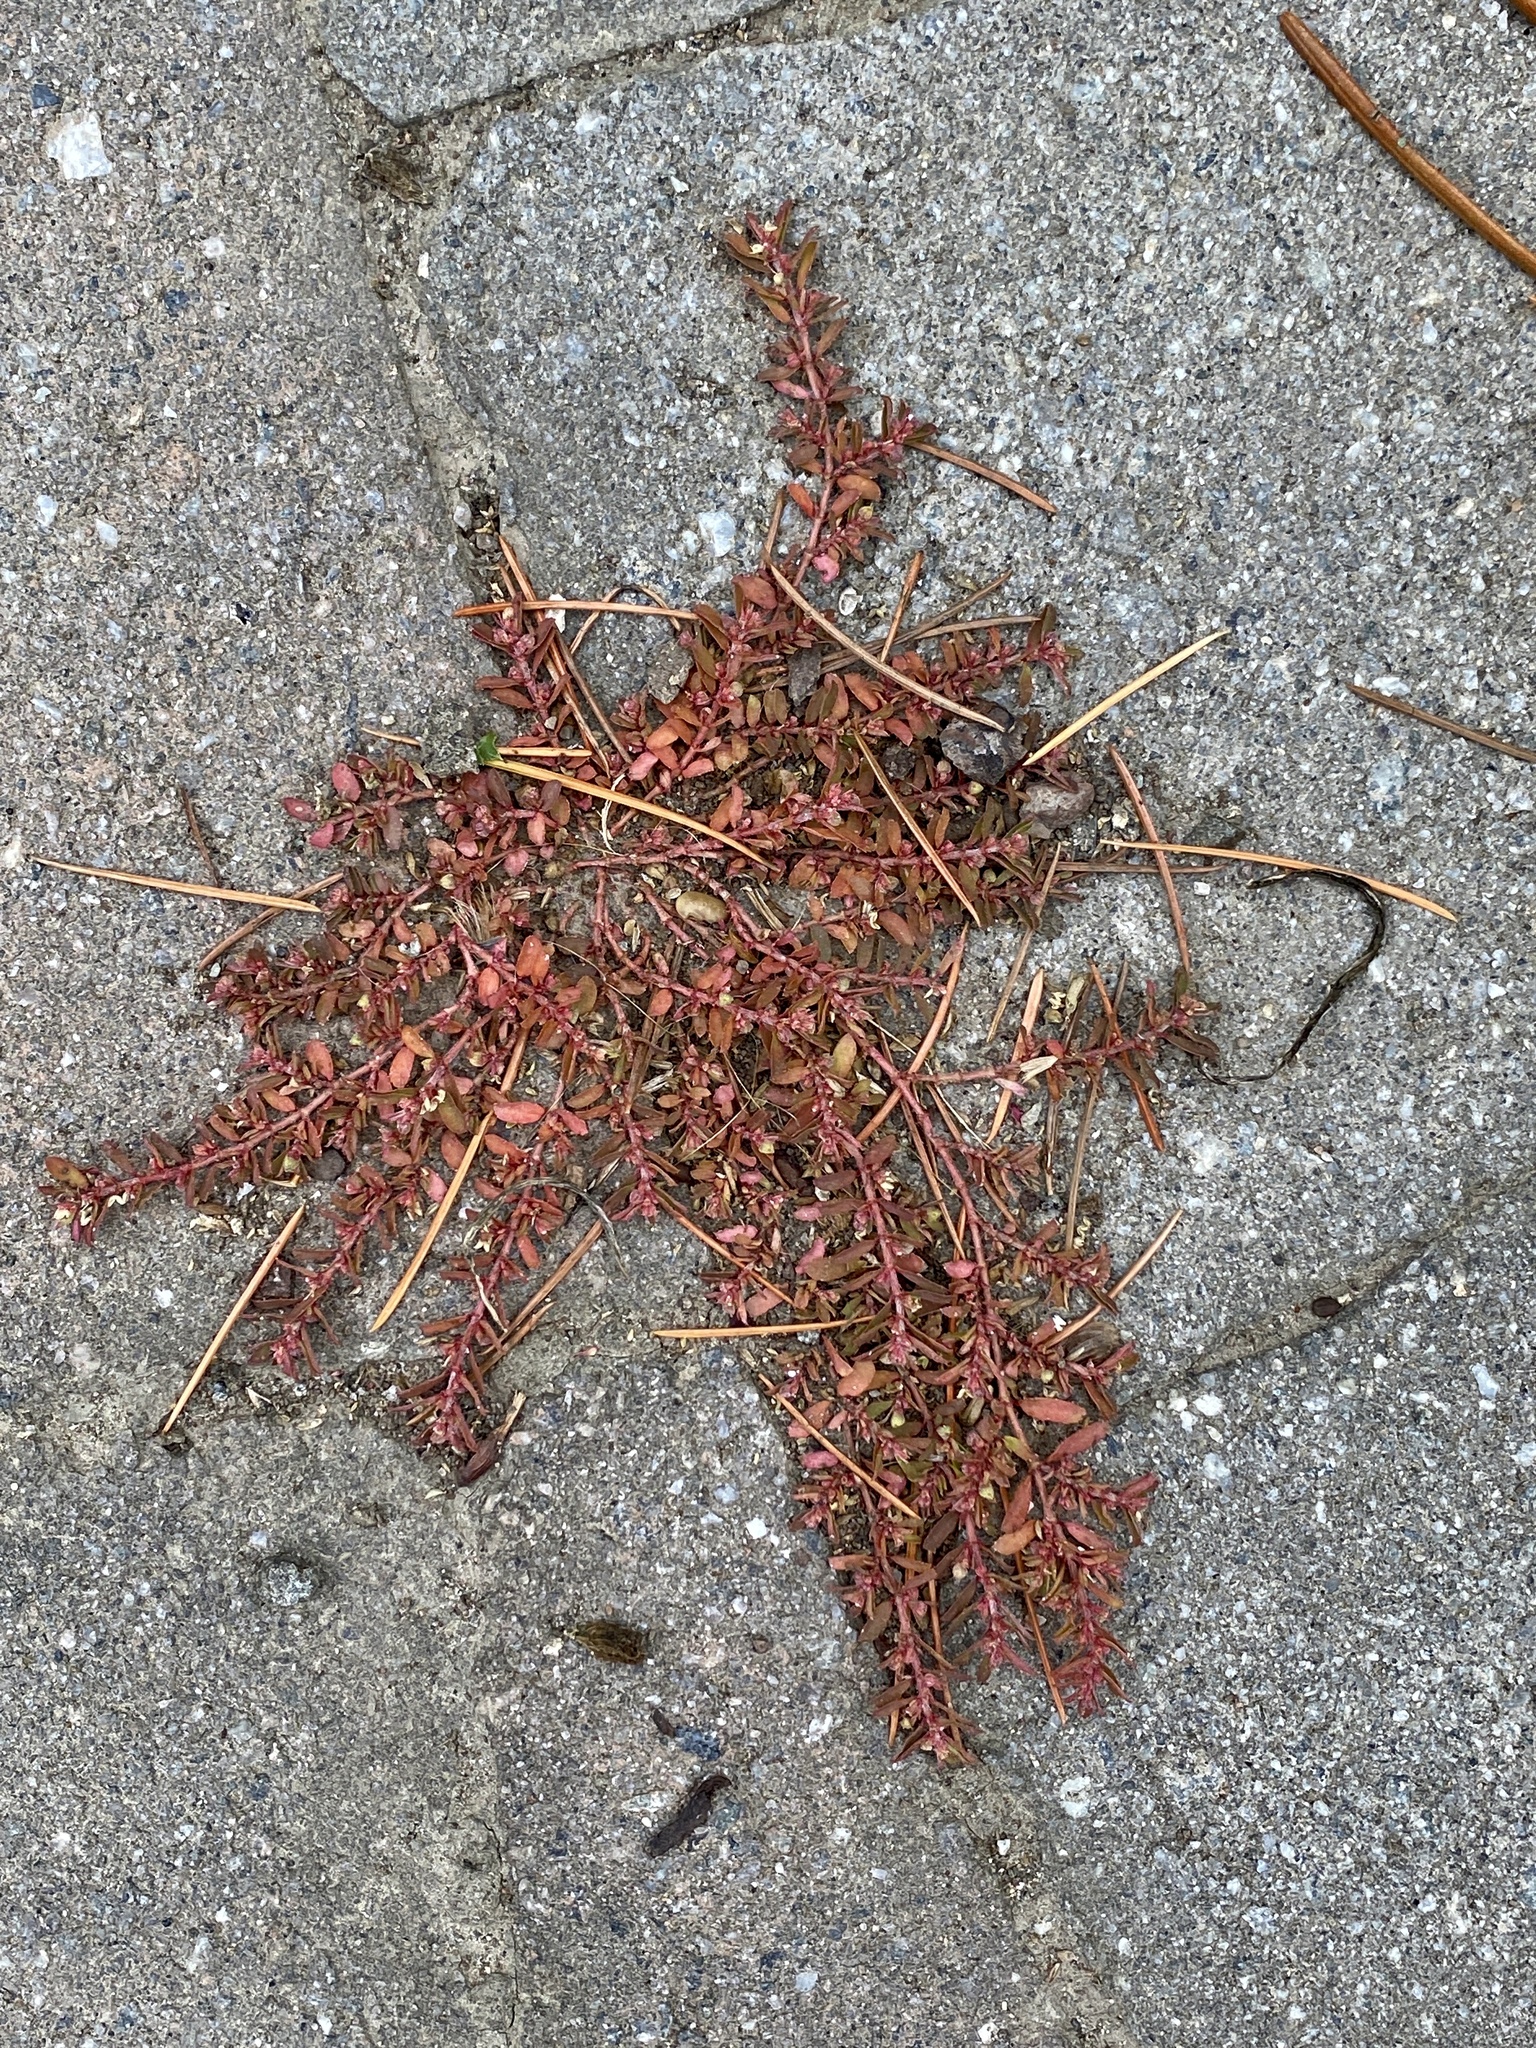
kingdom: Plantae
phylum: Tracheophyta
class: Magnoliopsida
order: Malpighiales
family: Euphorbiaceae
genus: Euphorbia
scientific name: Euphorbia maculata
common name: Spotted spurge
